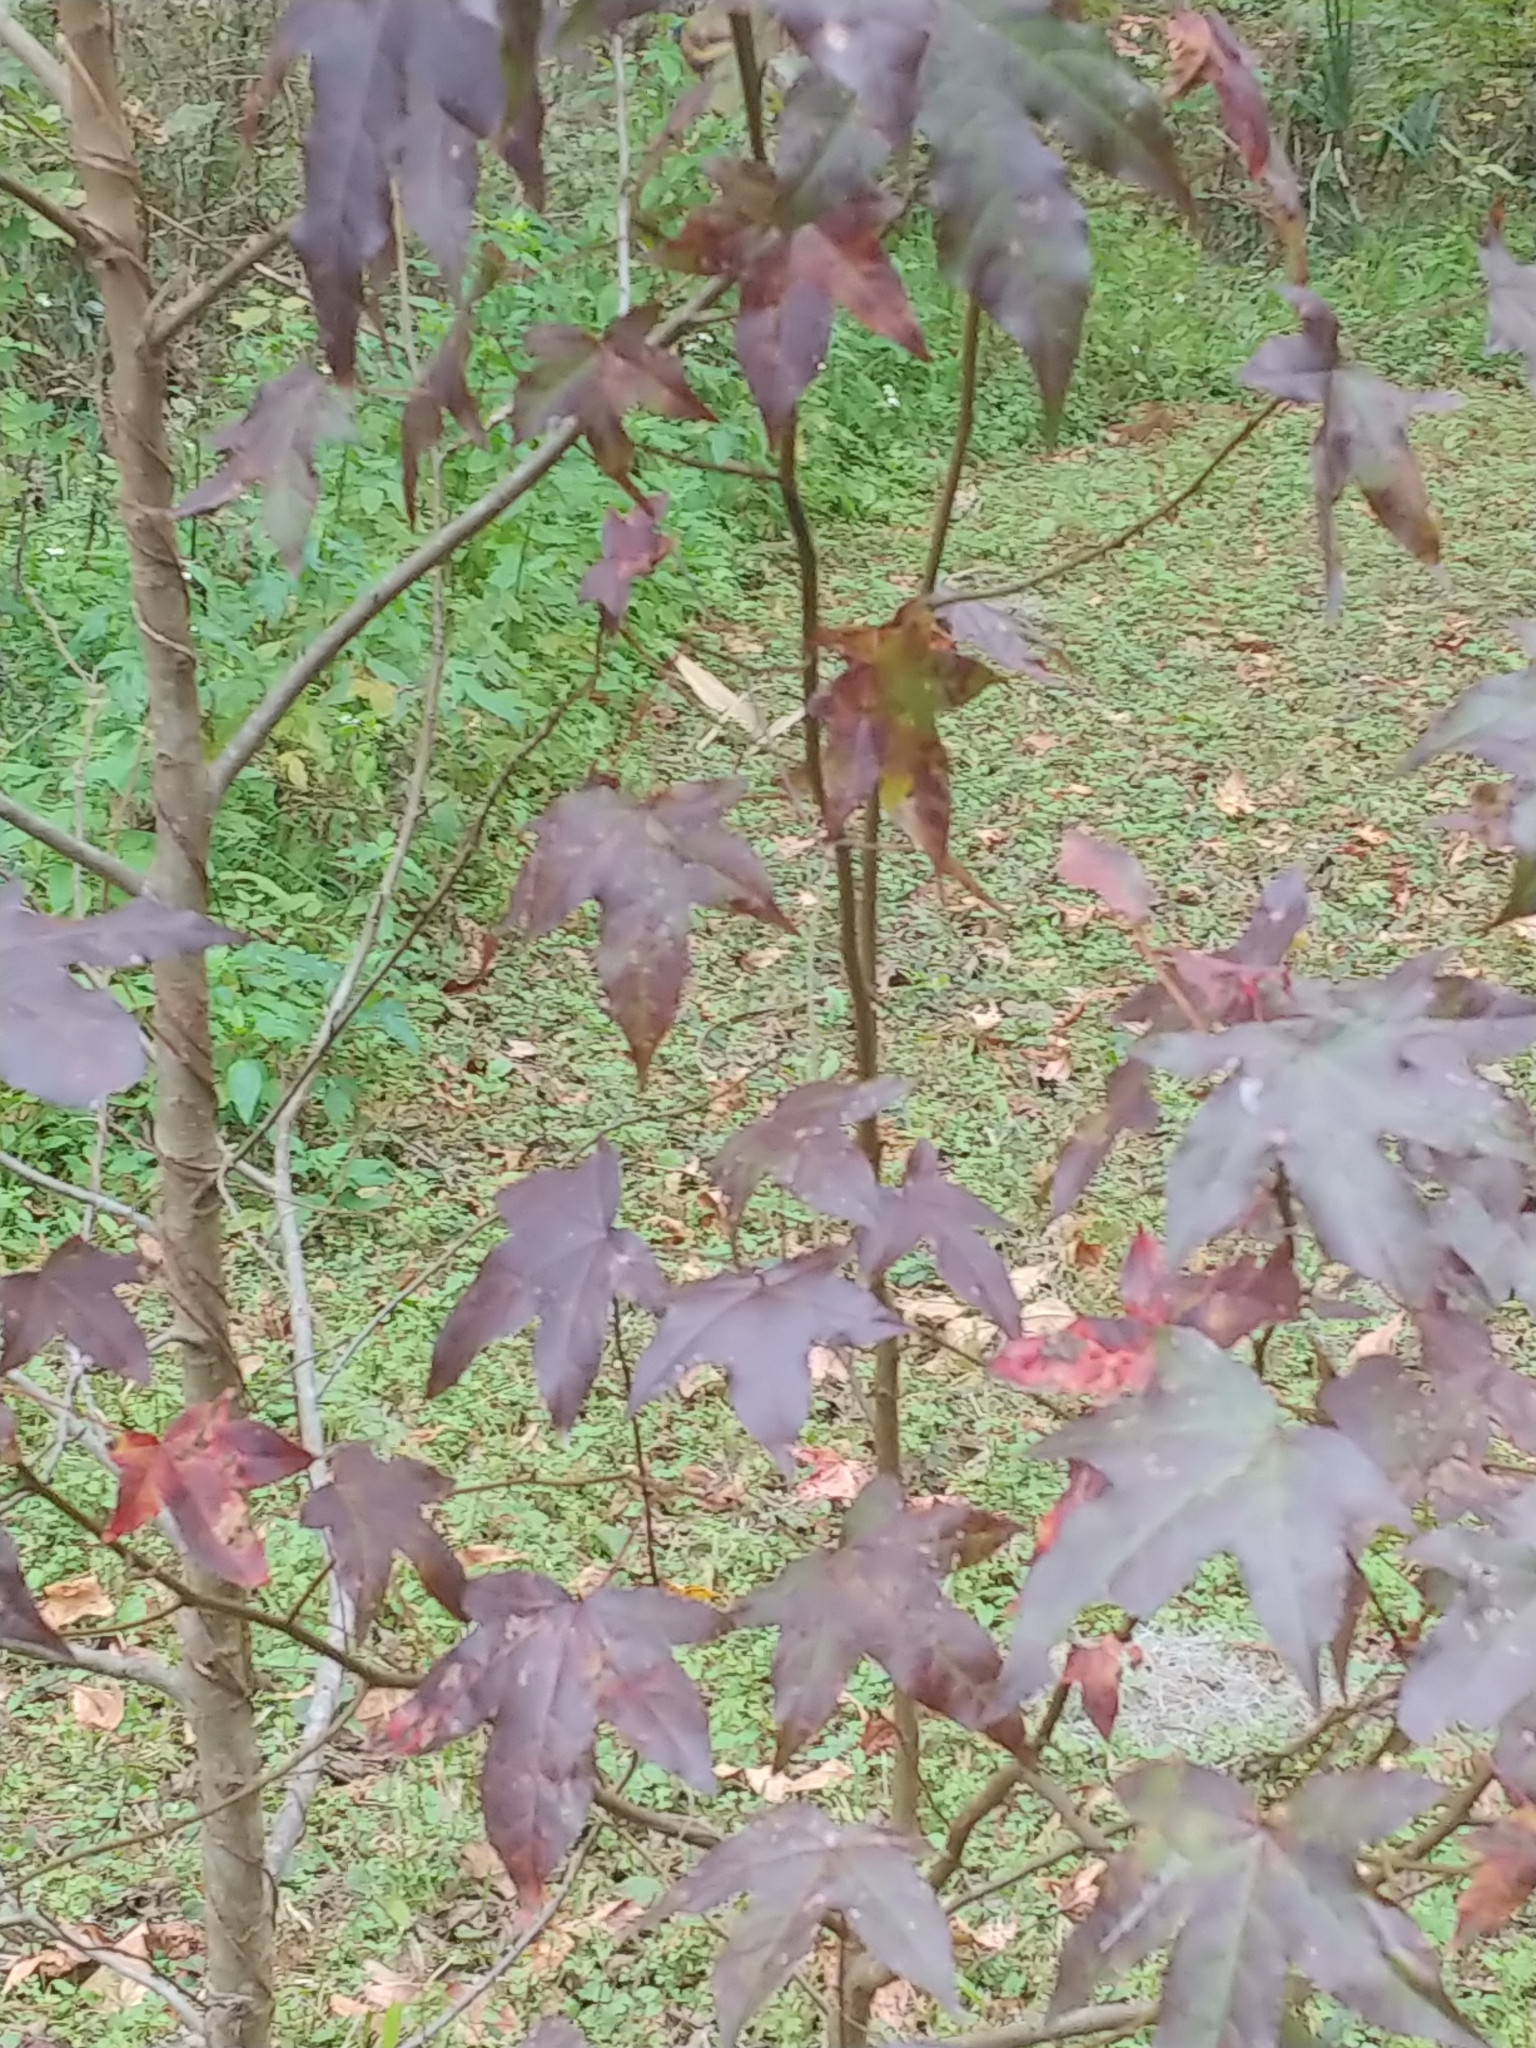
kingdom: Plantae
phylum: Tracheophyta
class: Magnoliopsida
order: Saxifragales
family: Altingiaceae
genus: Liquidambar
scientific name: Liquidambar styraciflua
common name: Sweet gum
